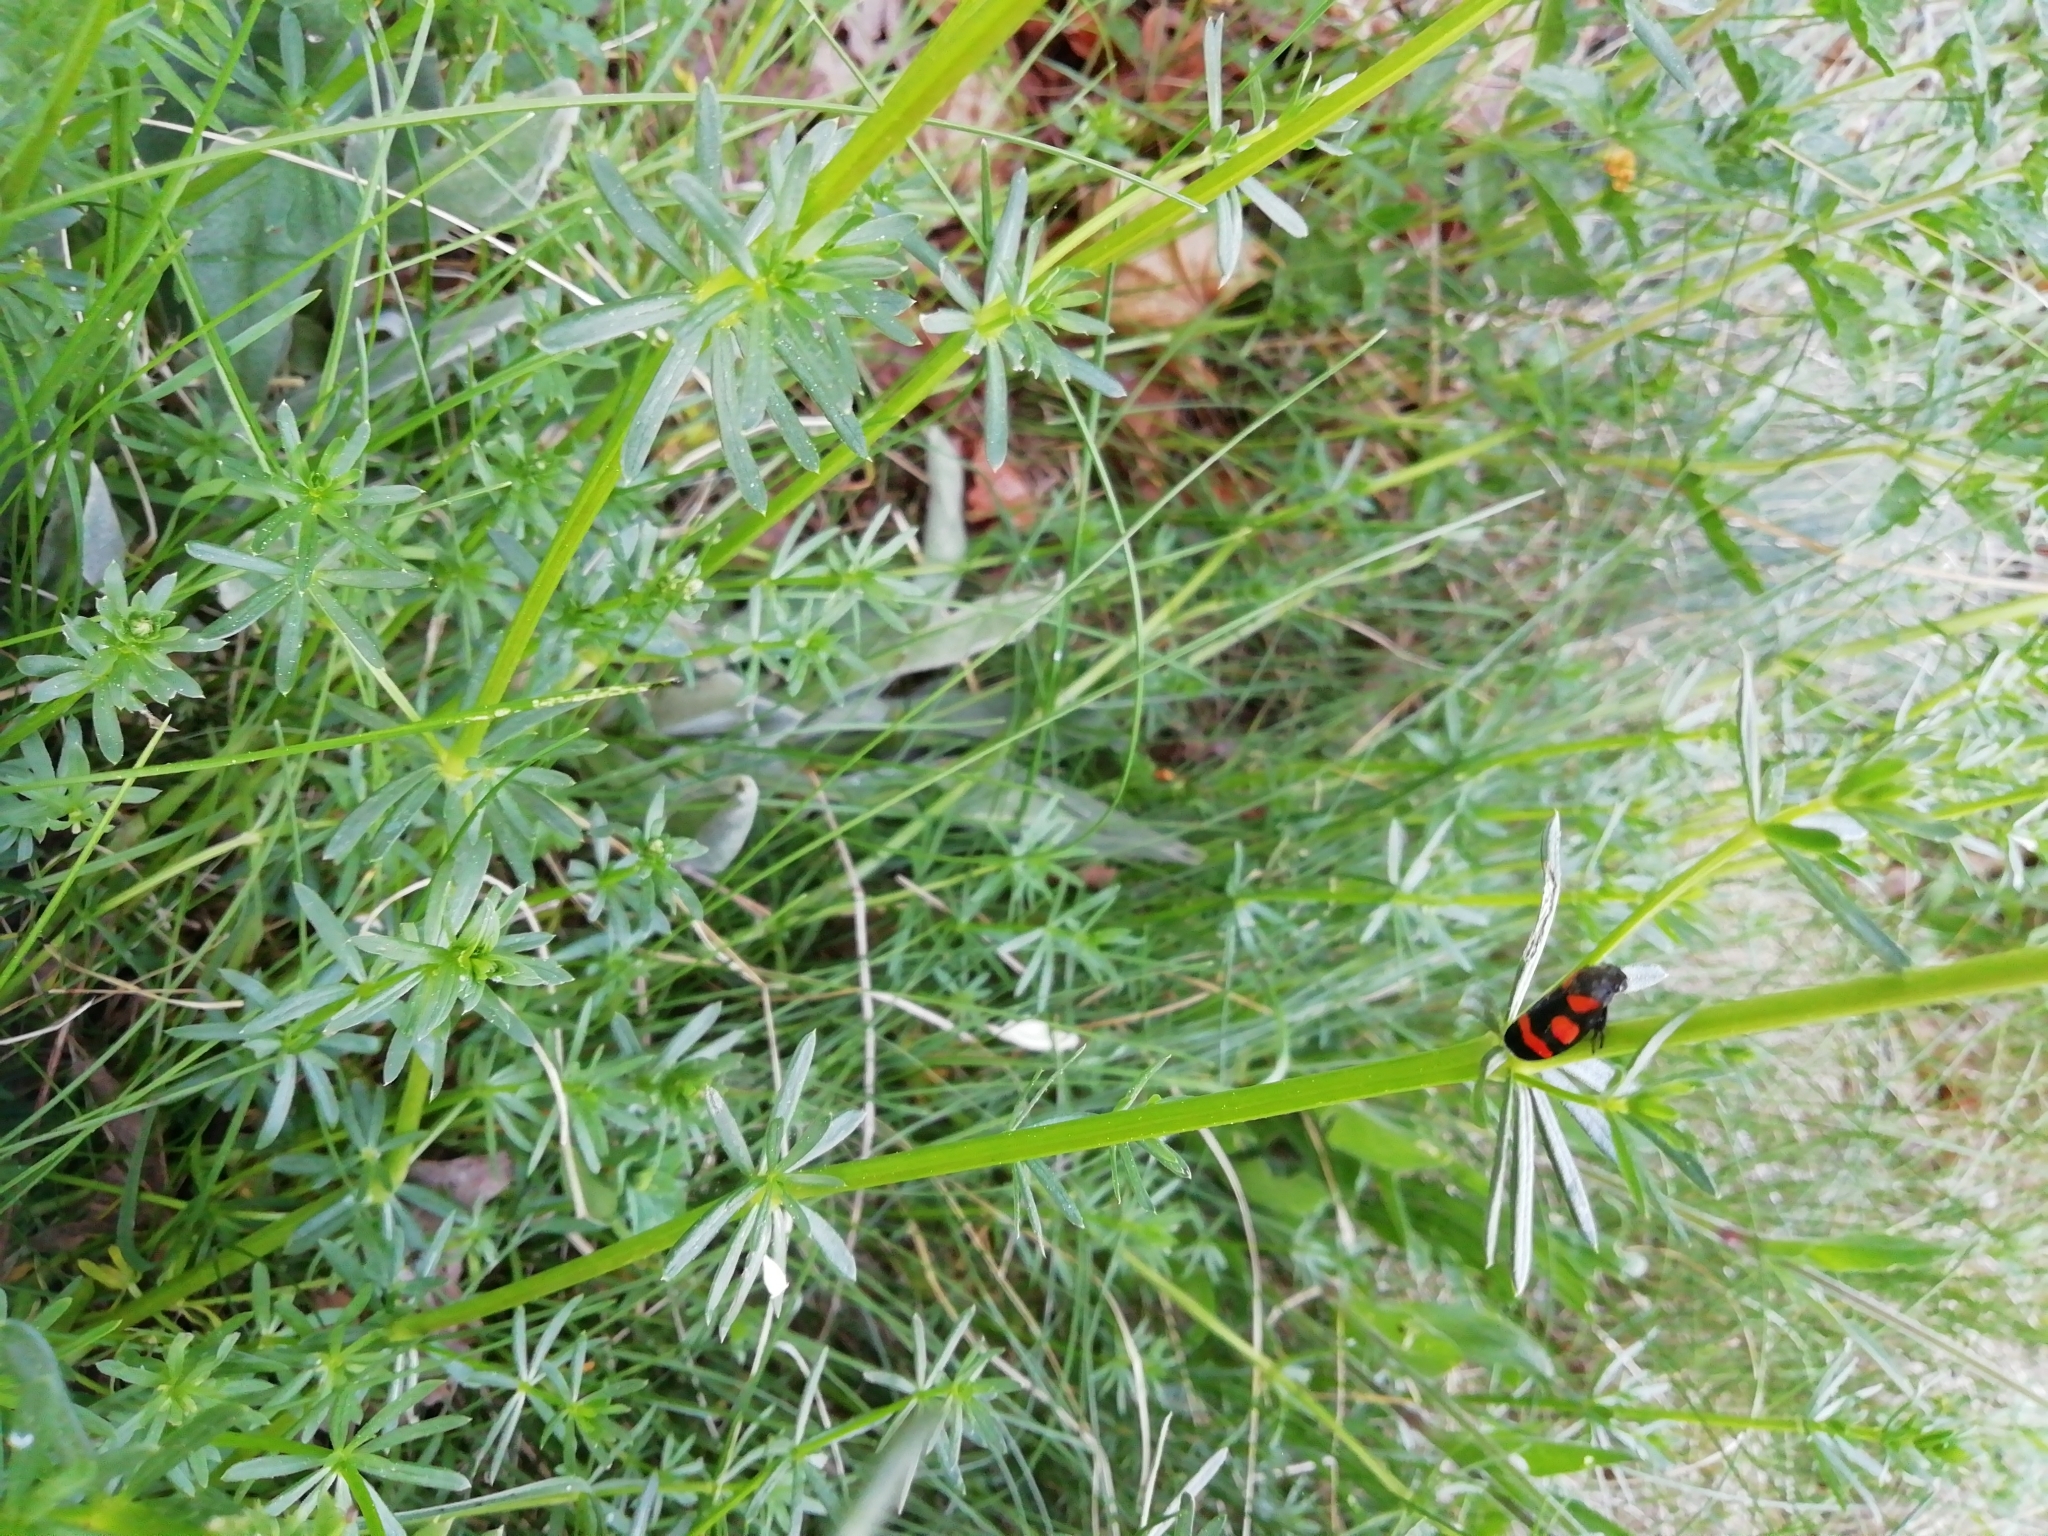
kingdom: Animalia
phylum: Arthropoda
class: Insecta
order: Hemiptera
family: Cercopidae
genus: Cercopis
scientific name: Cercopis
